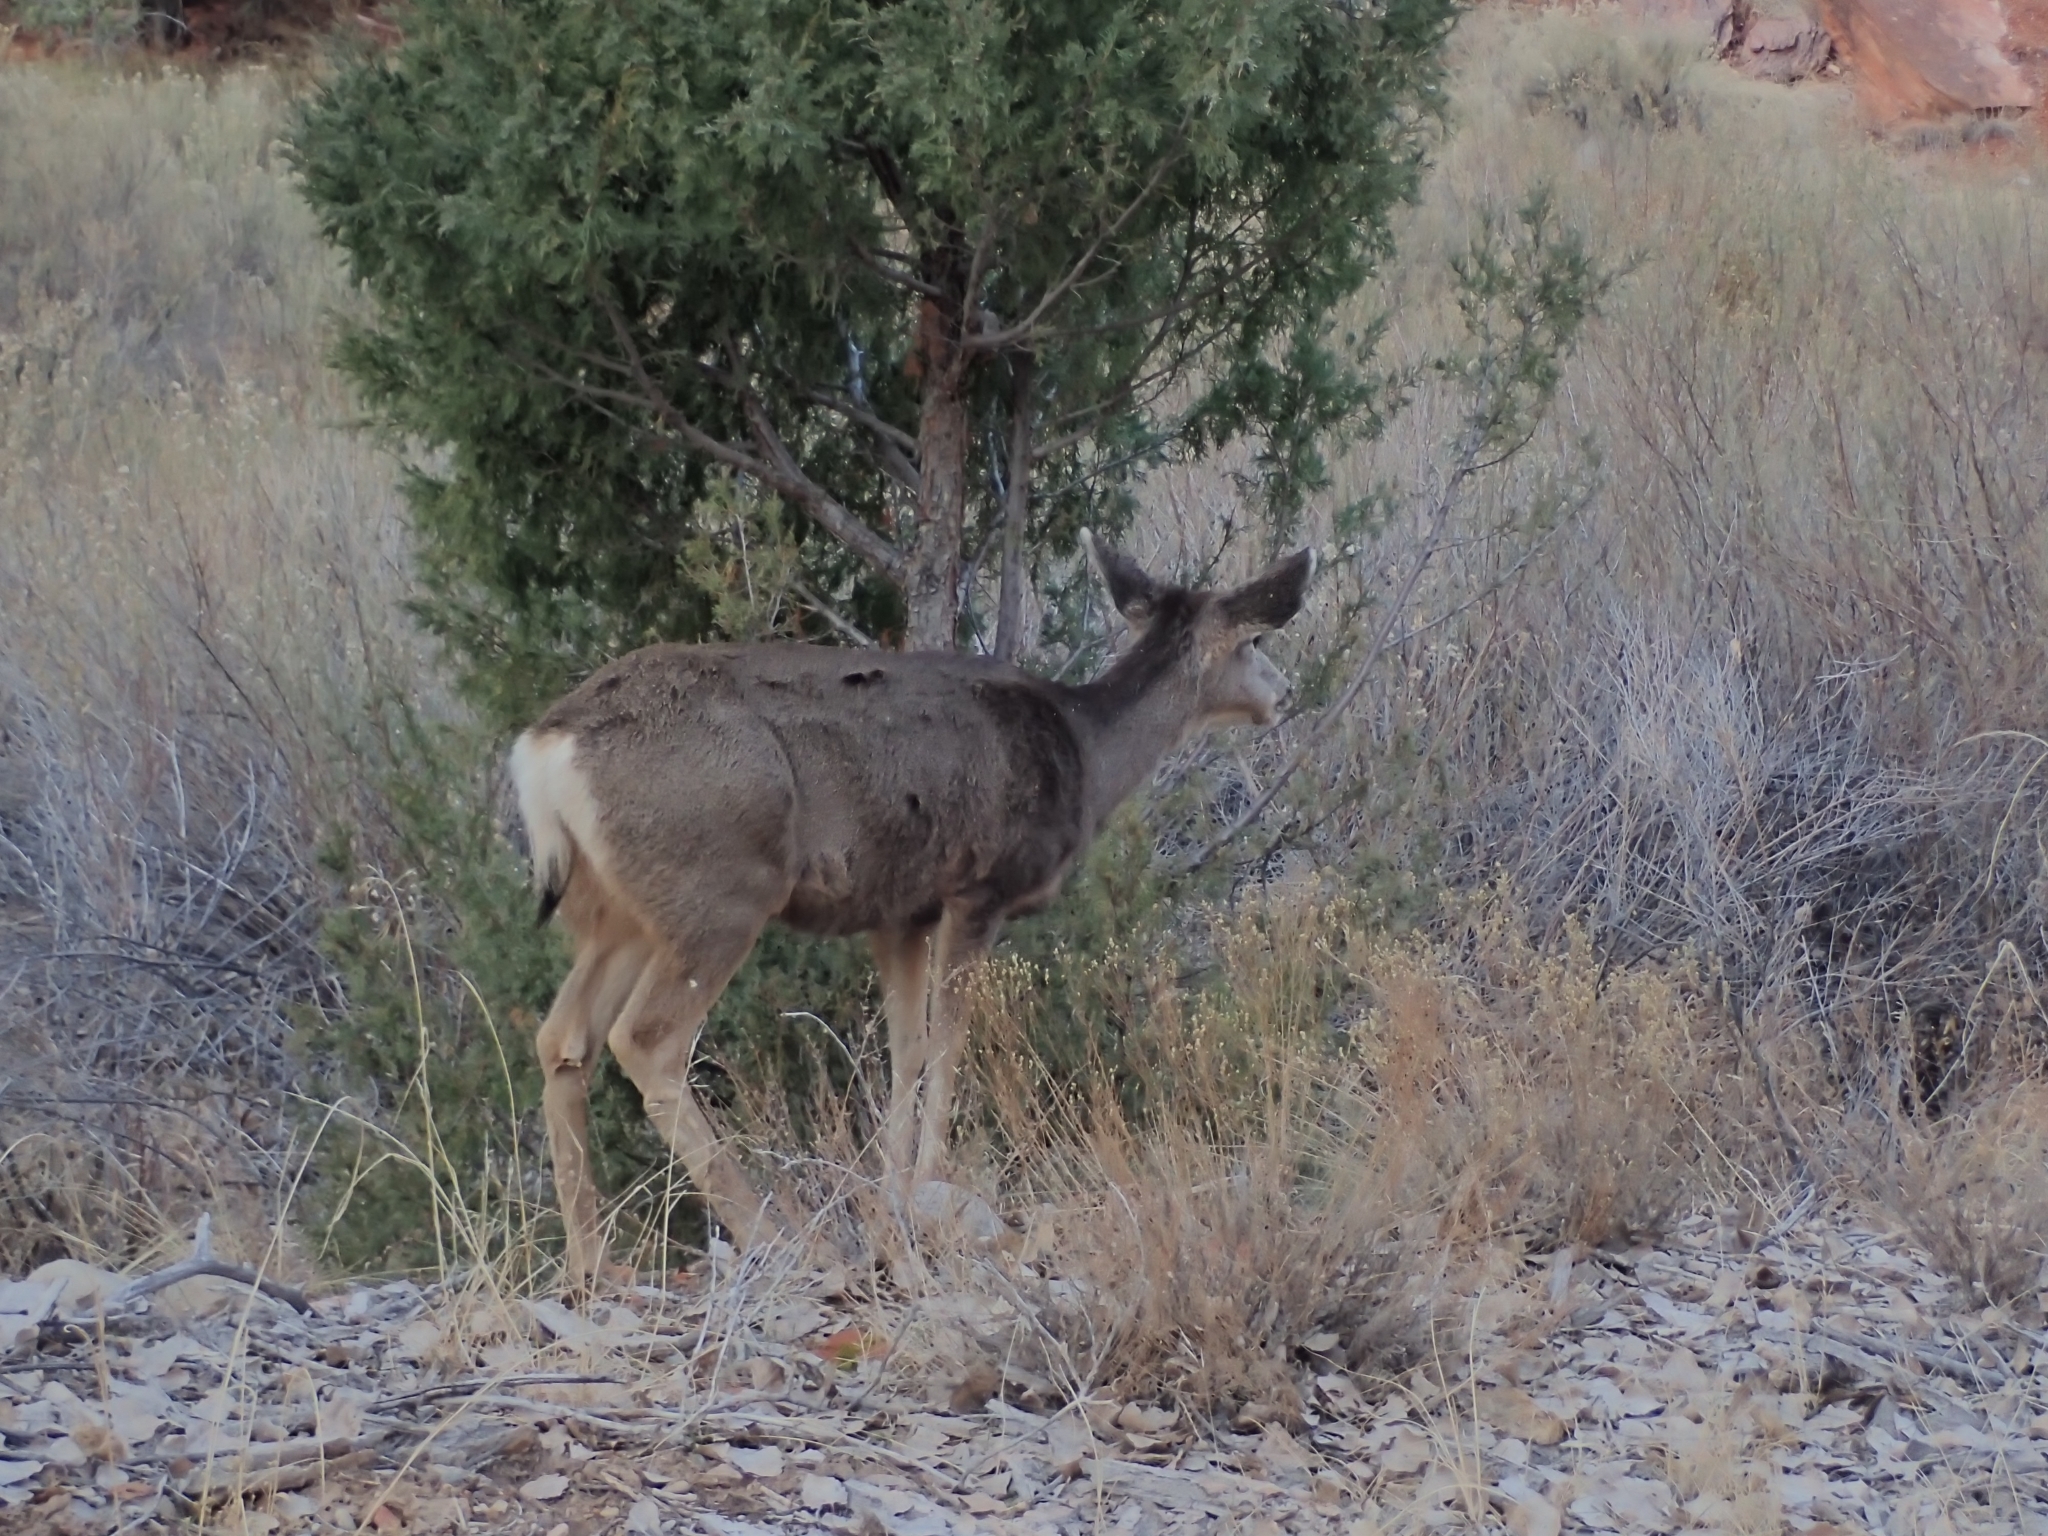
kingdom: Animalia
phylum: Chordata
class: Mammalia
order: Artiodactyla
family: Cervidae
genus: Odocoileus
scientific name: Odocoileus hemionus
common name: Mule deer
